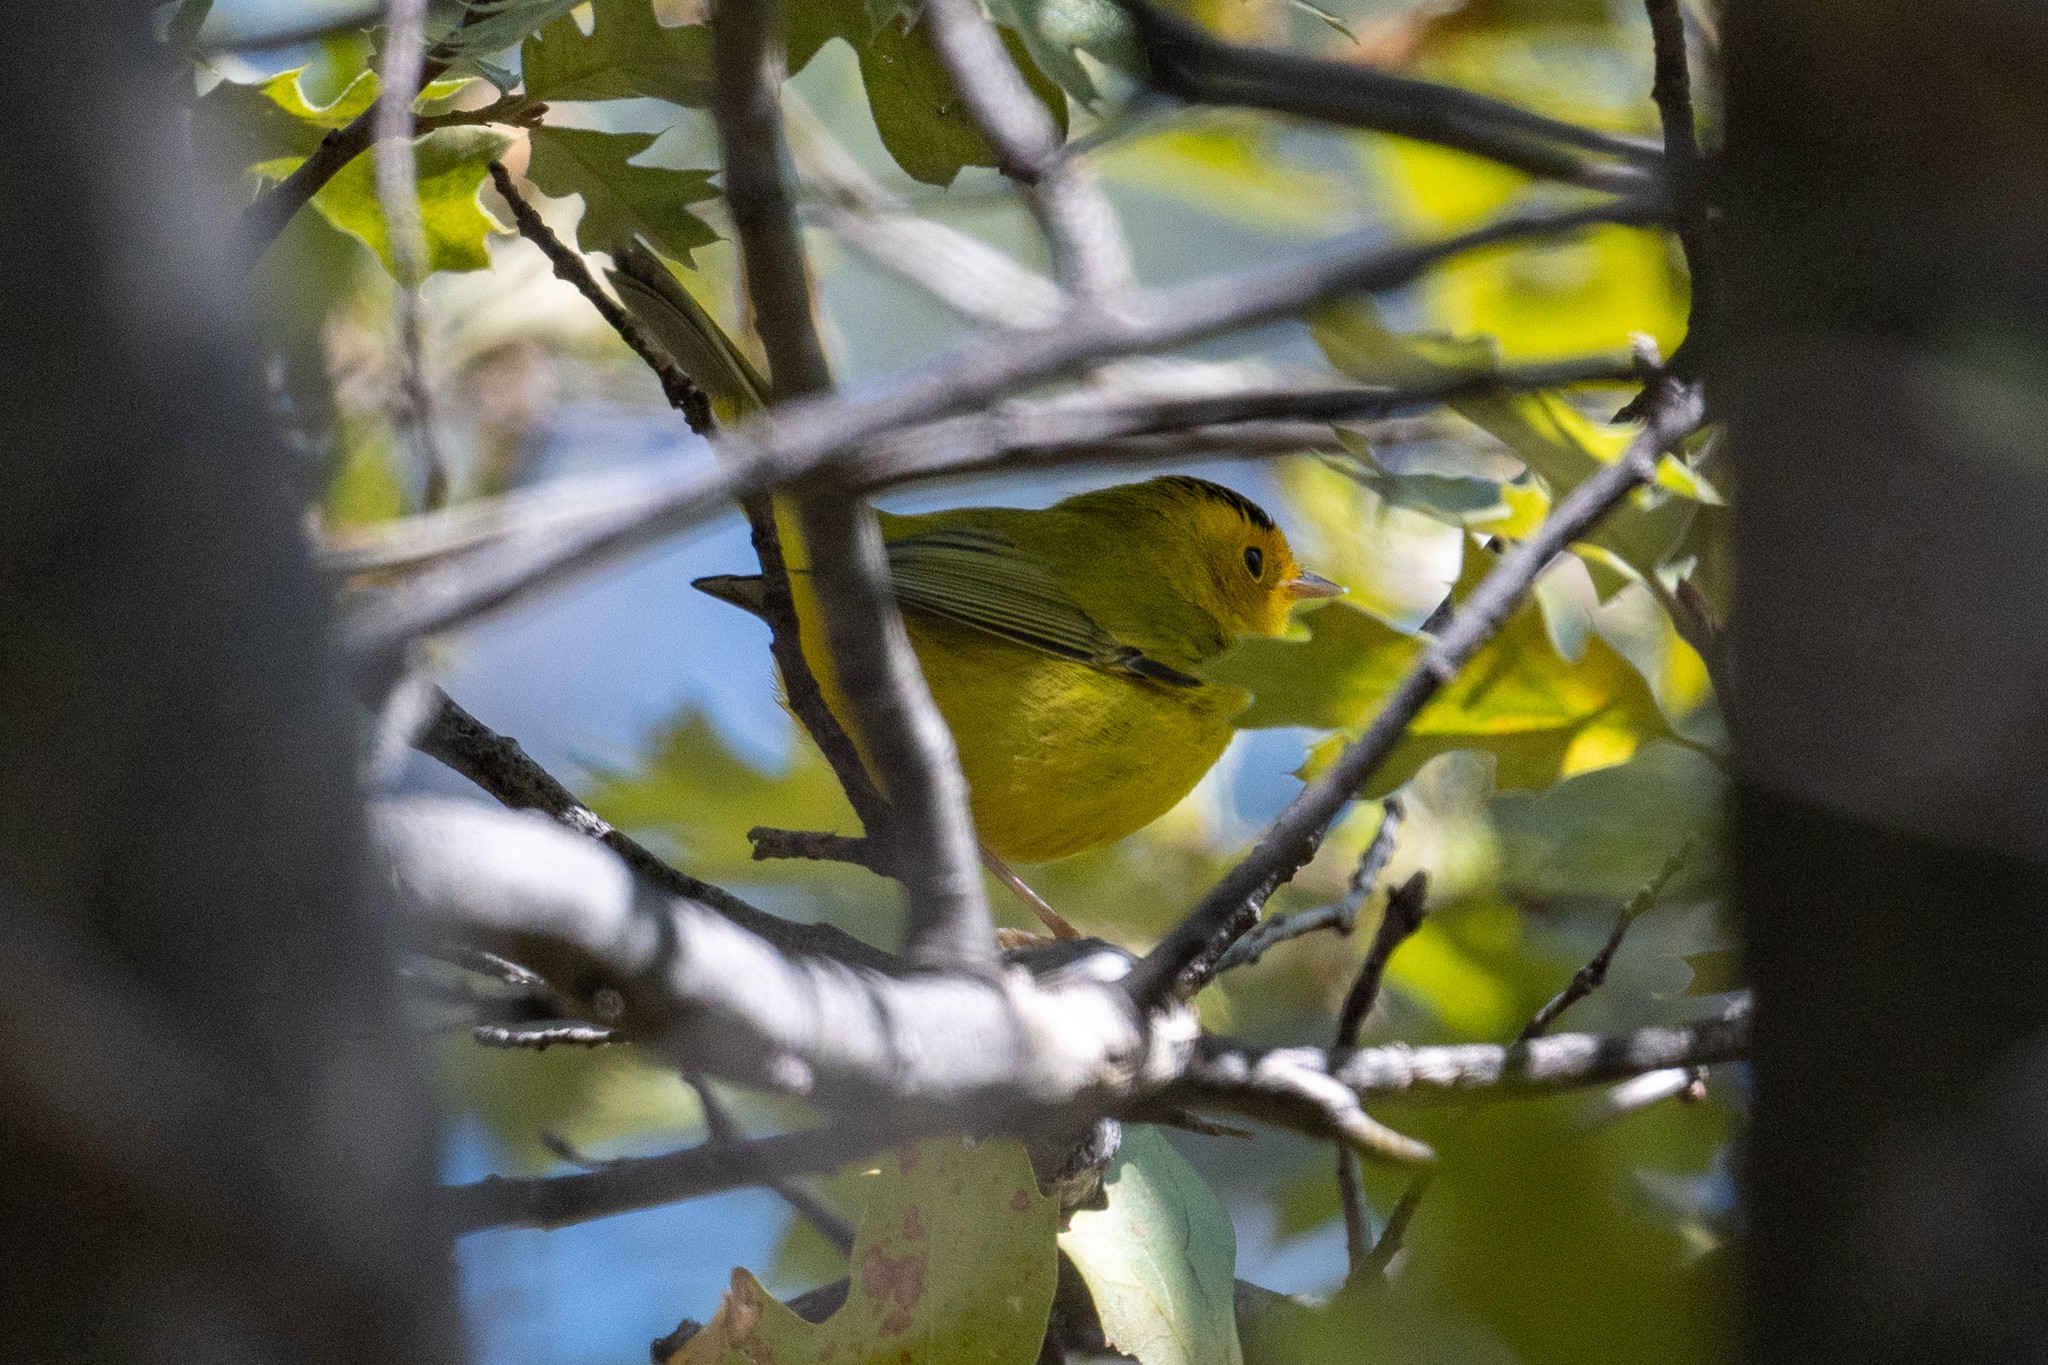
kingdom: Animalia
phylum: Chordata
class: Aves
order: Passeriformes
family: Parulidae
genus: Cardellina
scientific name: Cardellina pusilla
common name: Wilson's warbler
